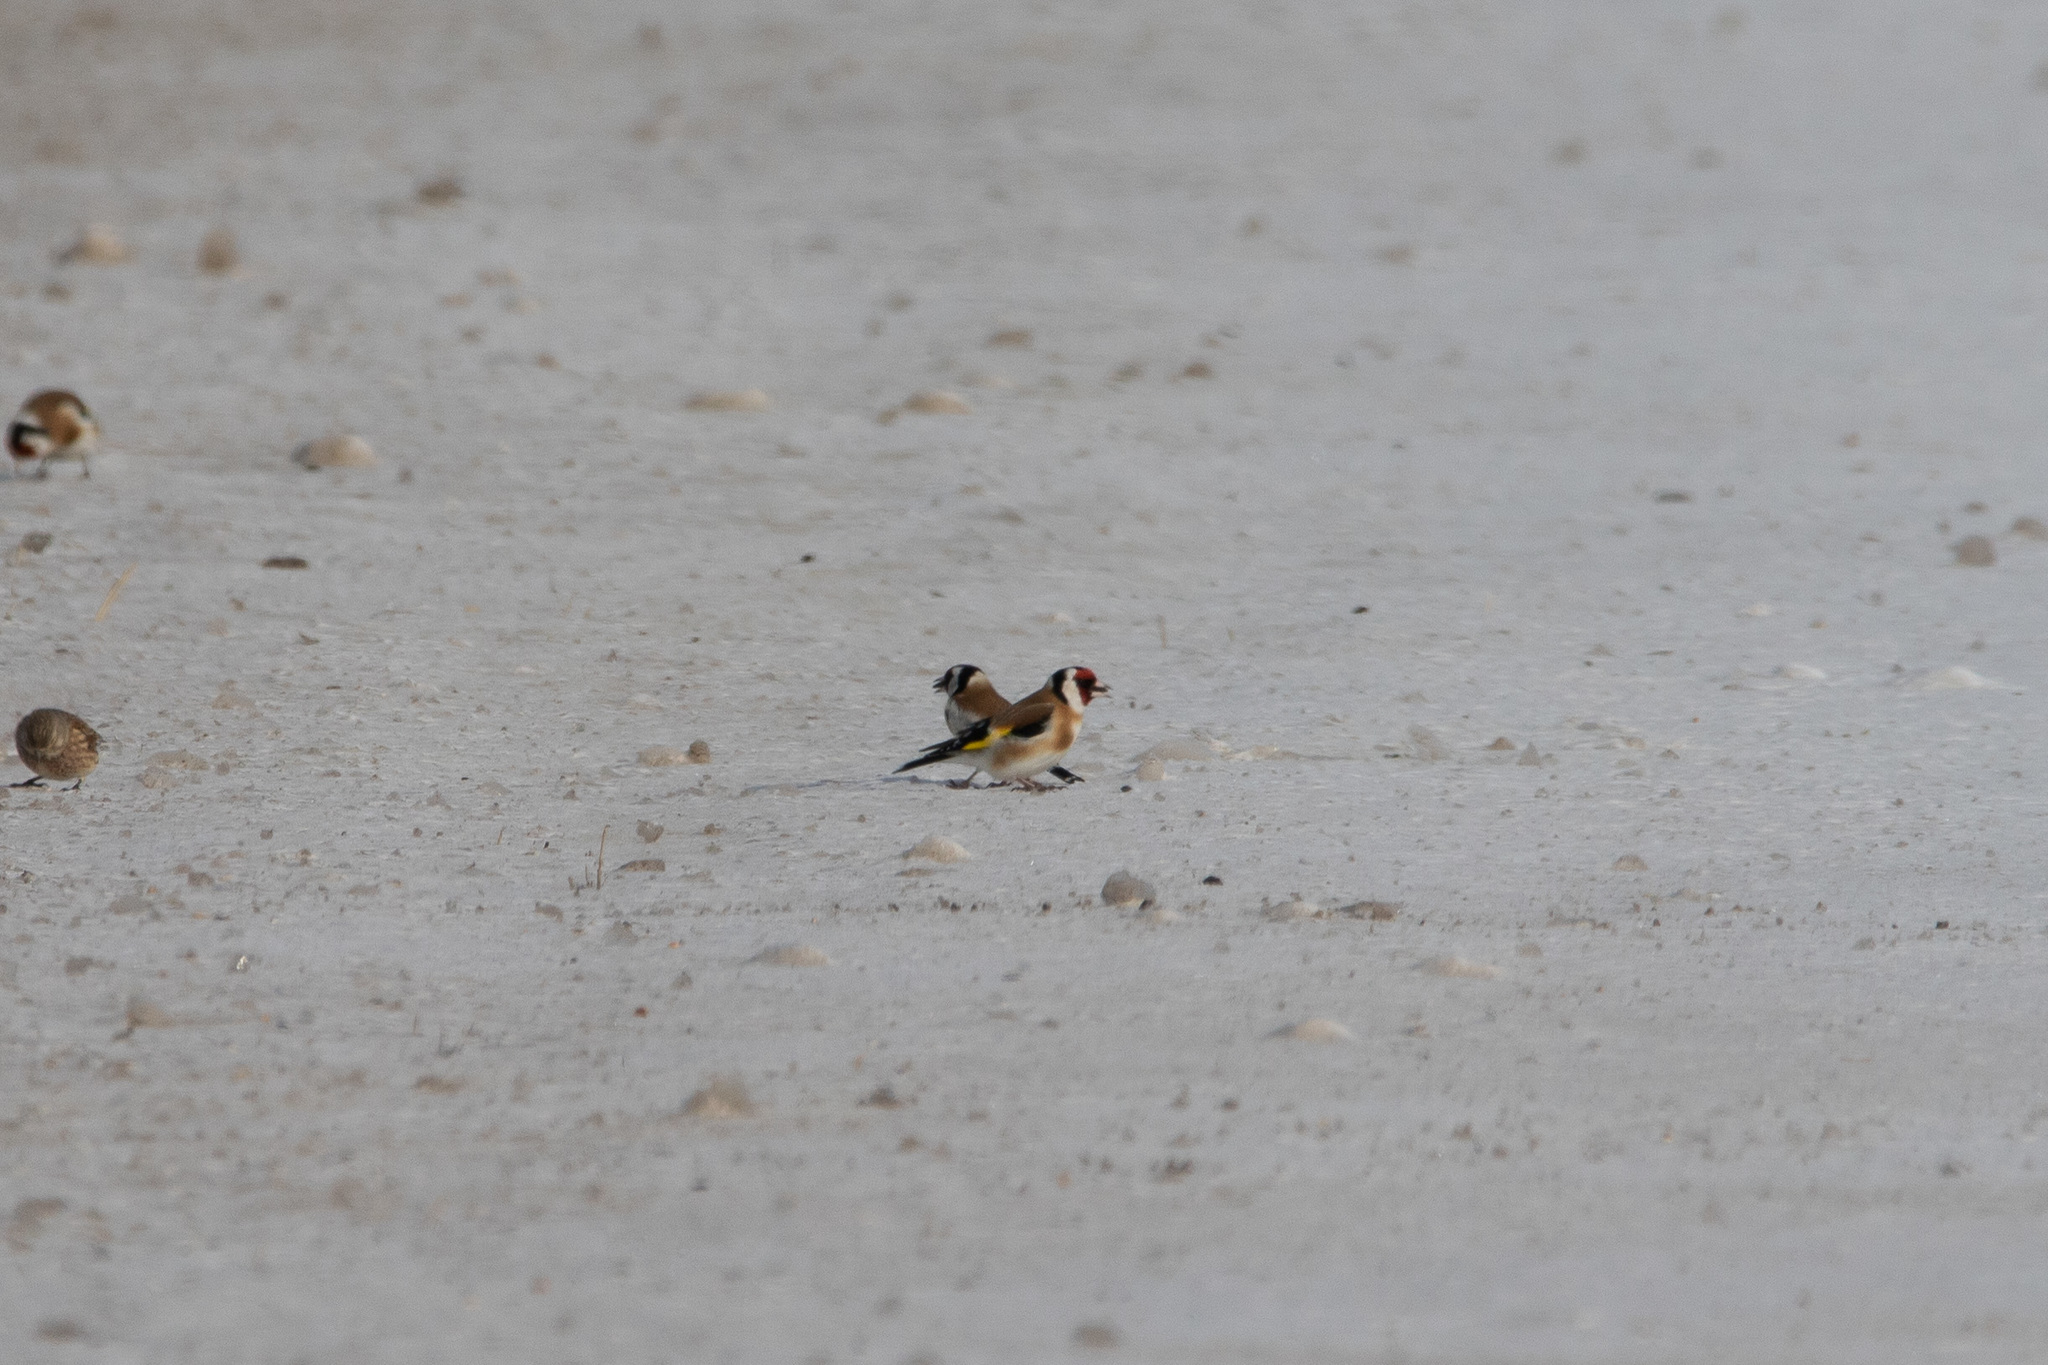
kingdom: Animalia
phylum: Chordata
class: Aves
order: Passeriformes
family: Fringillidae
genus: Carduelis
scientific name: Carduelis carduelis
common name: European goldfinch
